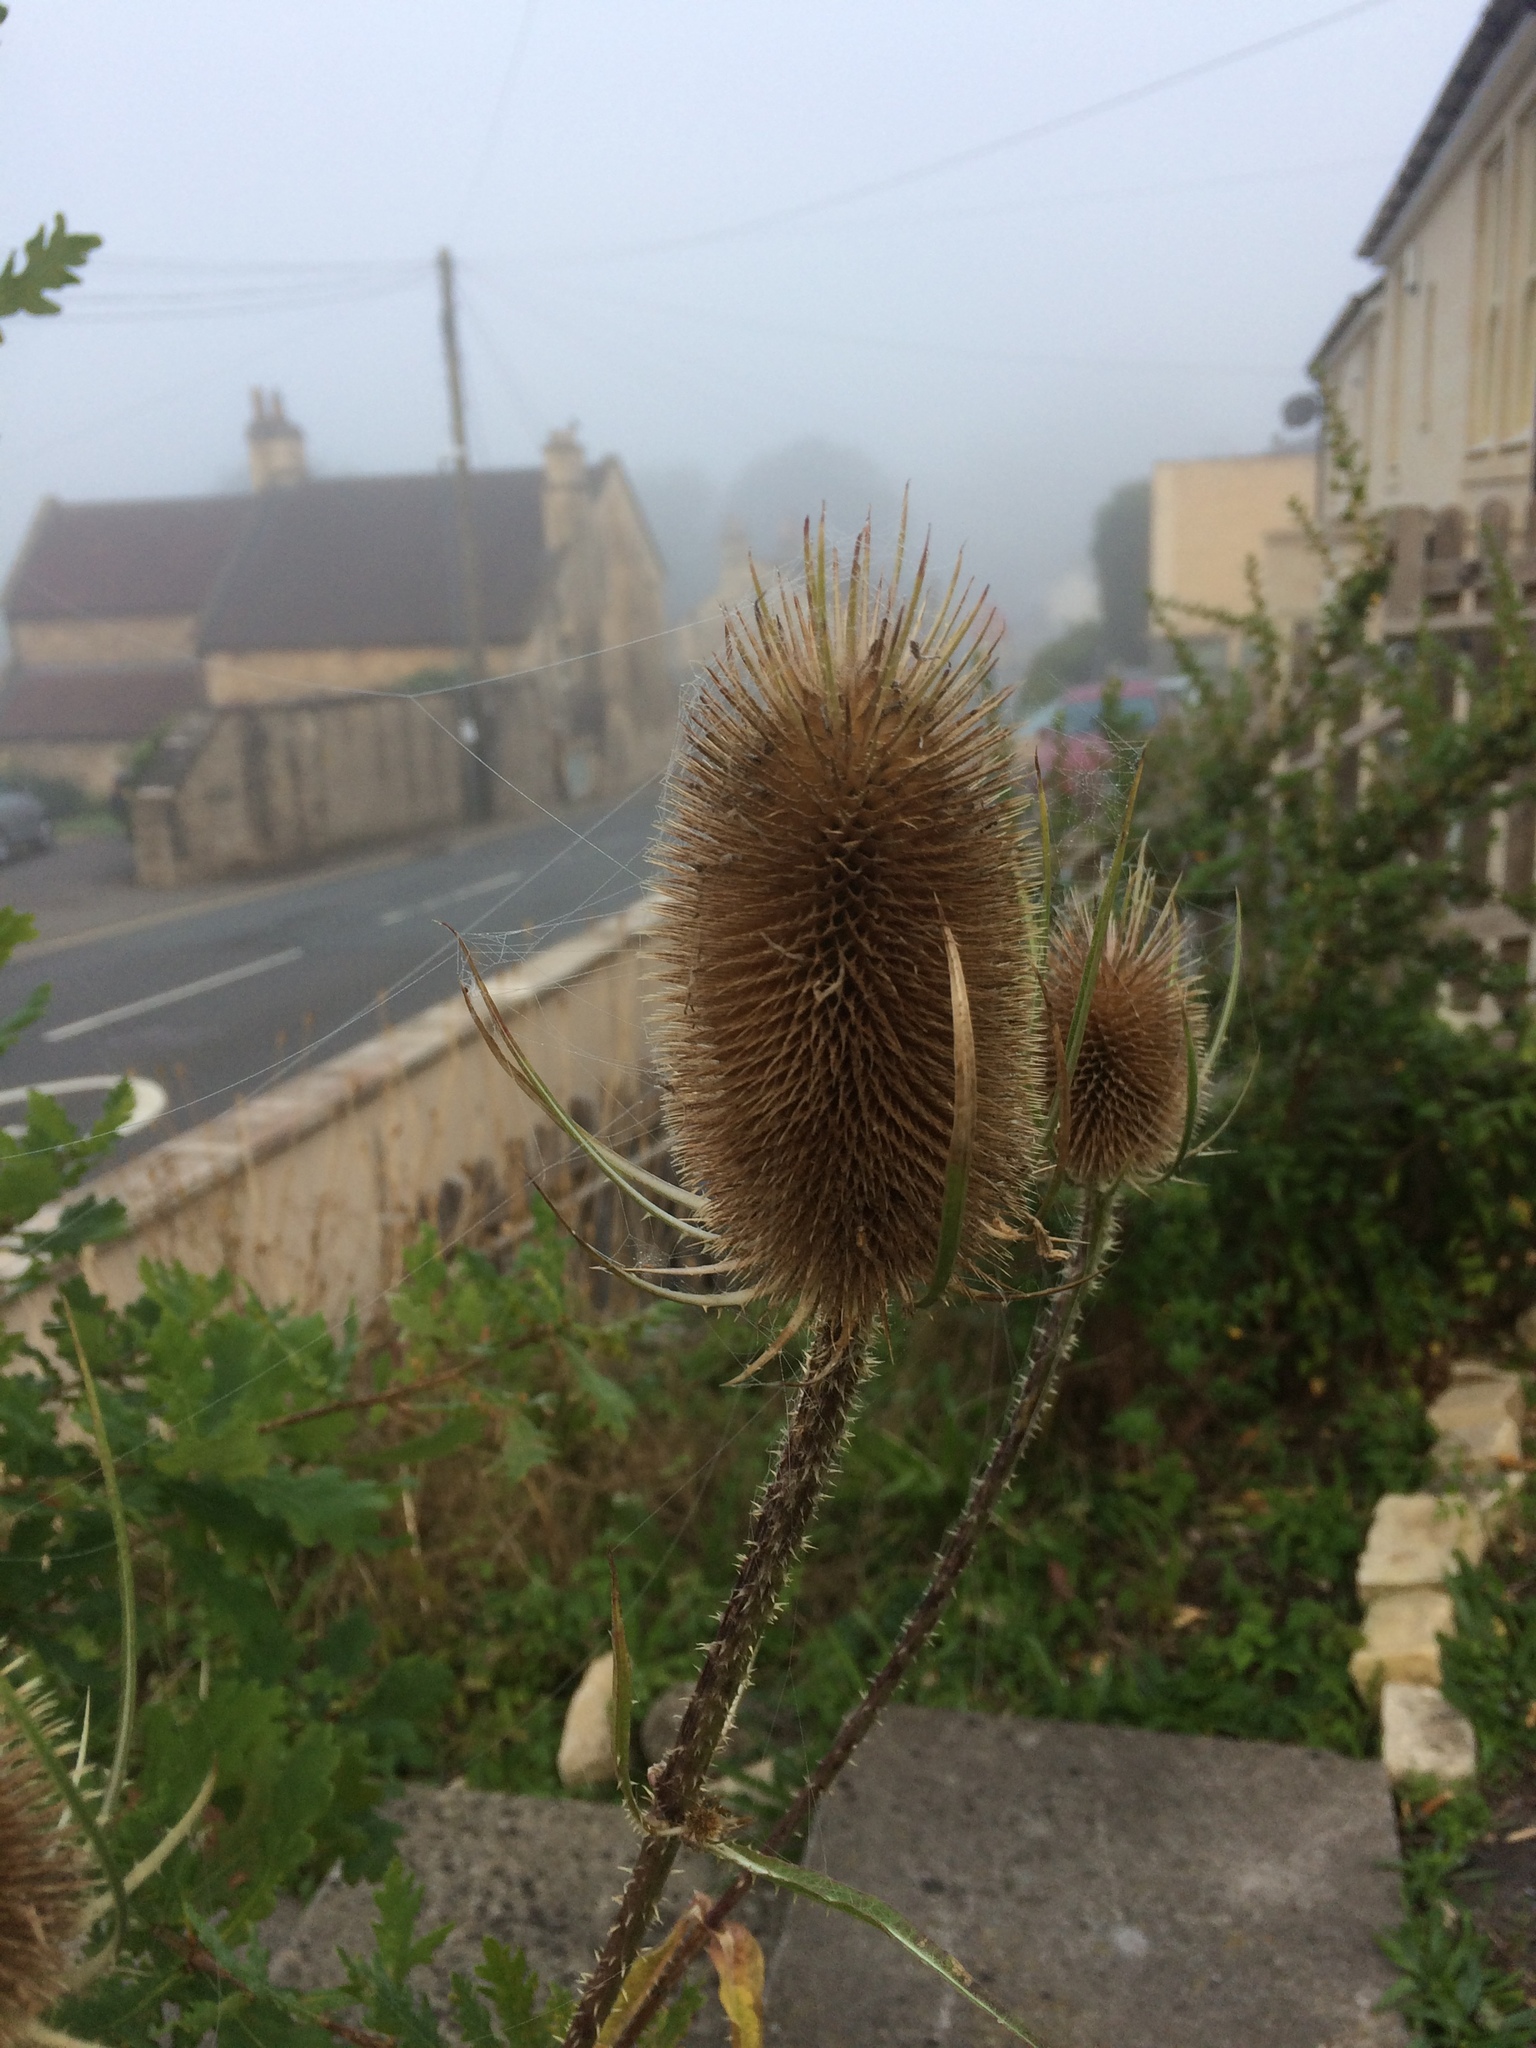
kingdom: Plantae
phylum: Tracheophyta
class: Magnoliopsida
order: Dipsacales
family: Caprifoliaceae
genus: Dipsacus
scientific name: Dipsacus fullonum
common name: Teasel
